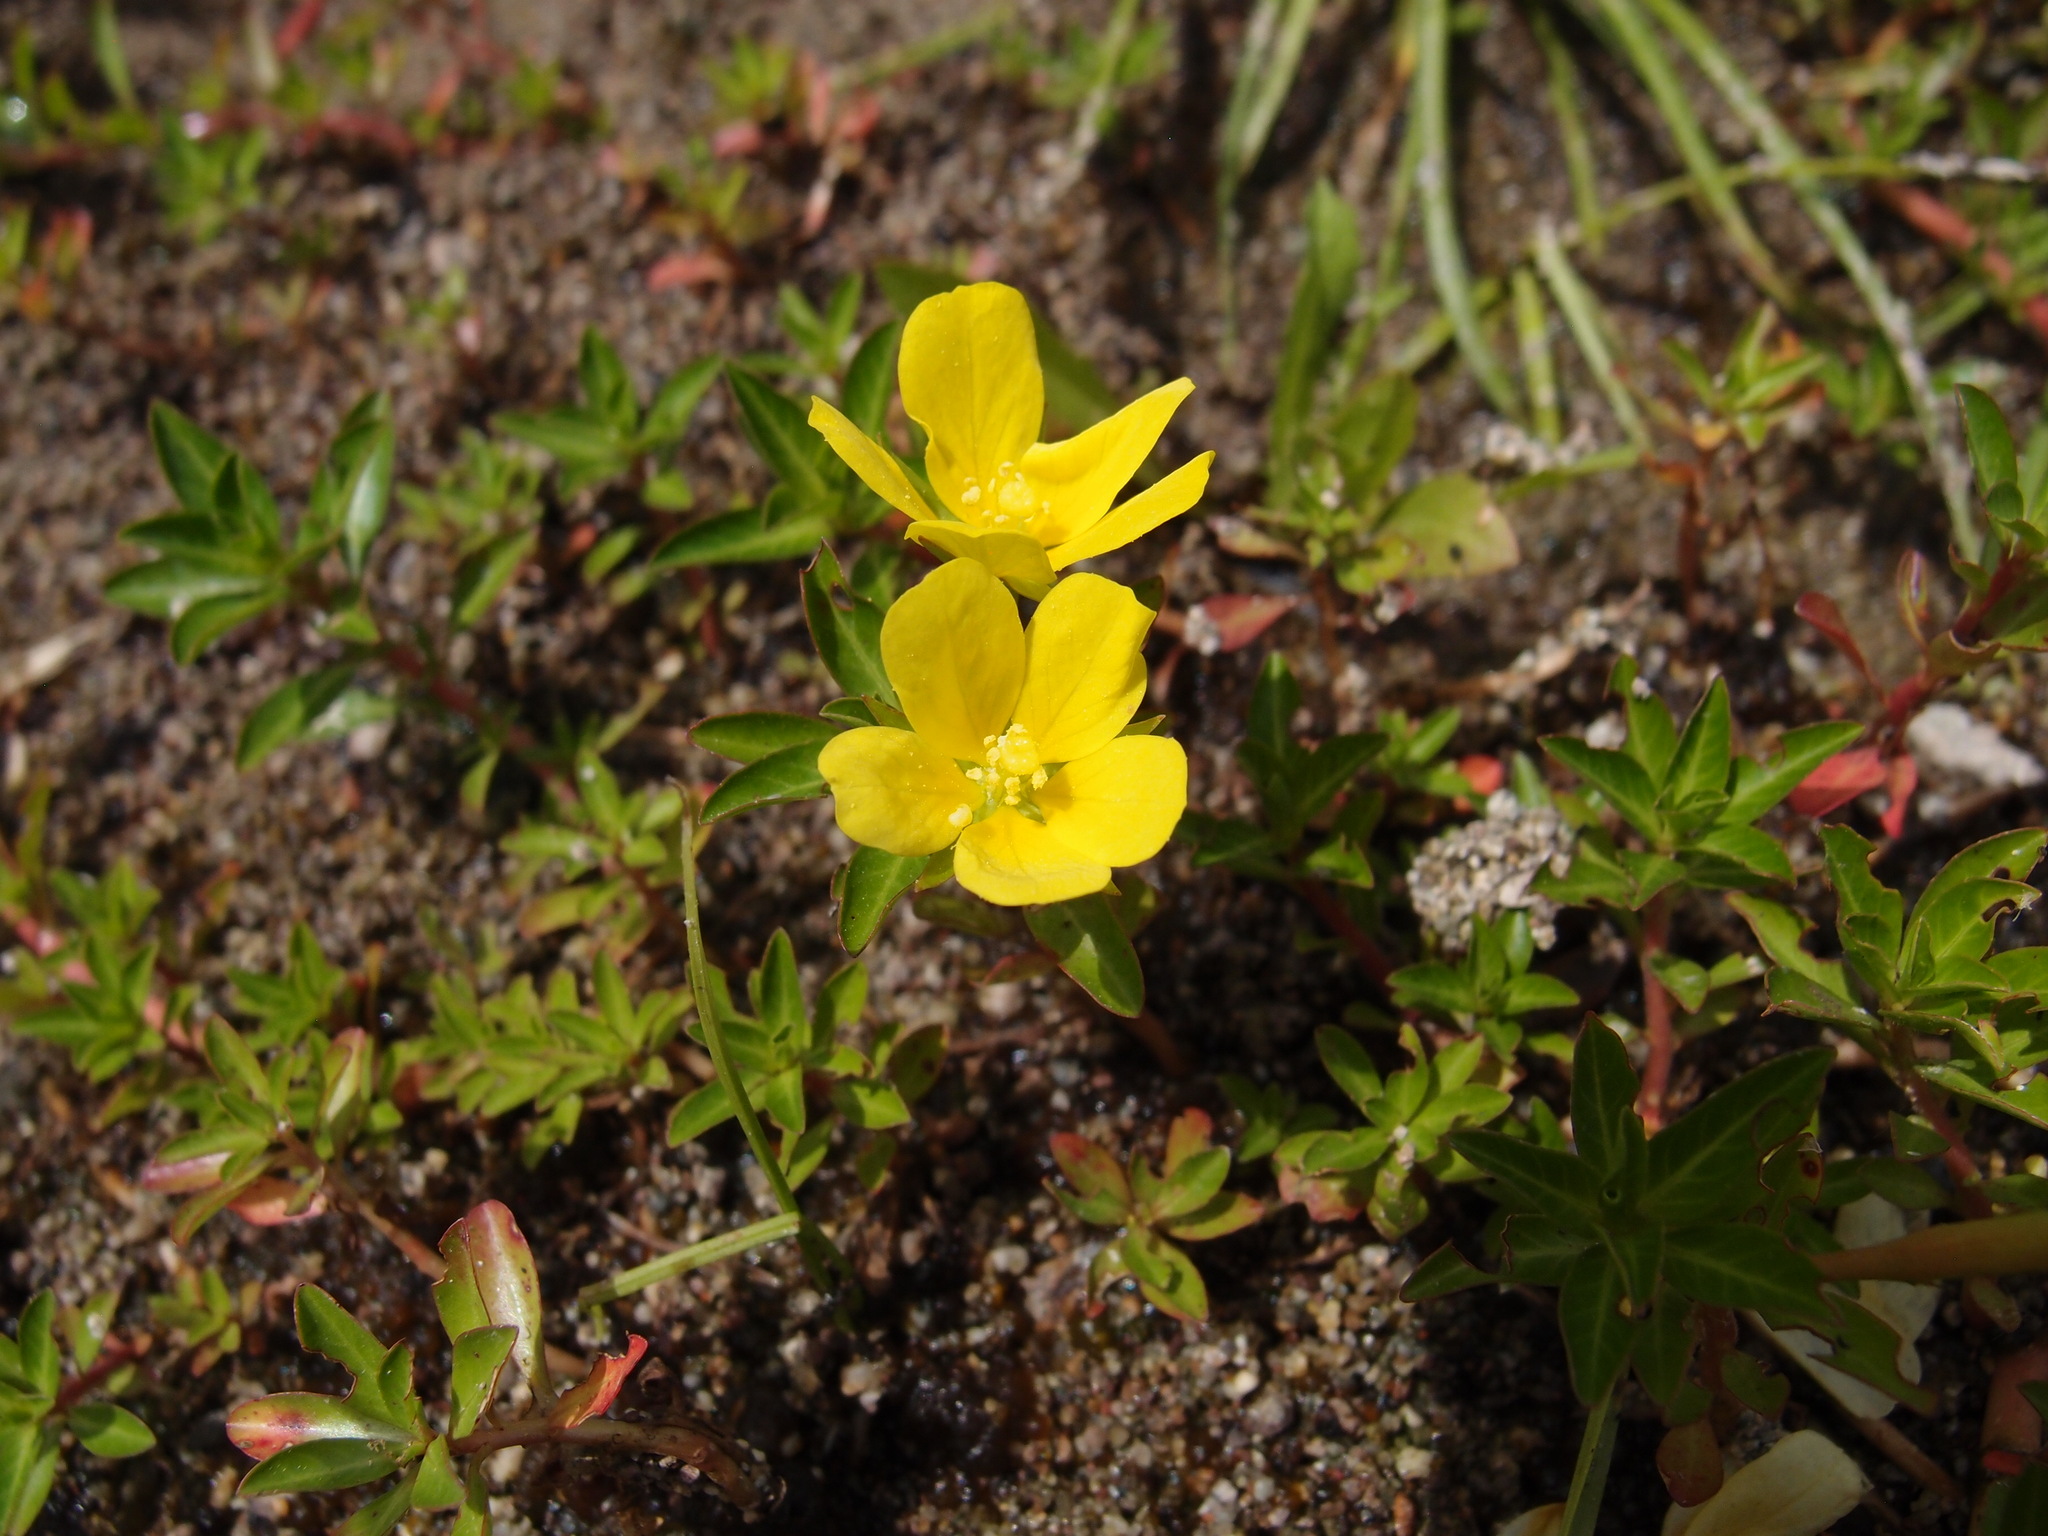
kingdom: Plantae
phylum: Tracheophyta
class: Magnoliopsida
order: Myrtales
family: Onagraceae
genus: Ludwigia
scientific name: Ludwigia peploides
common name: Floating primrose-willow
